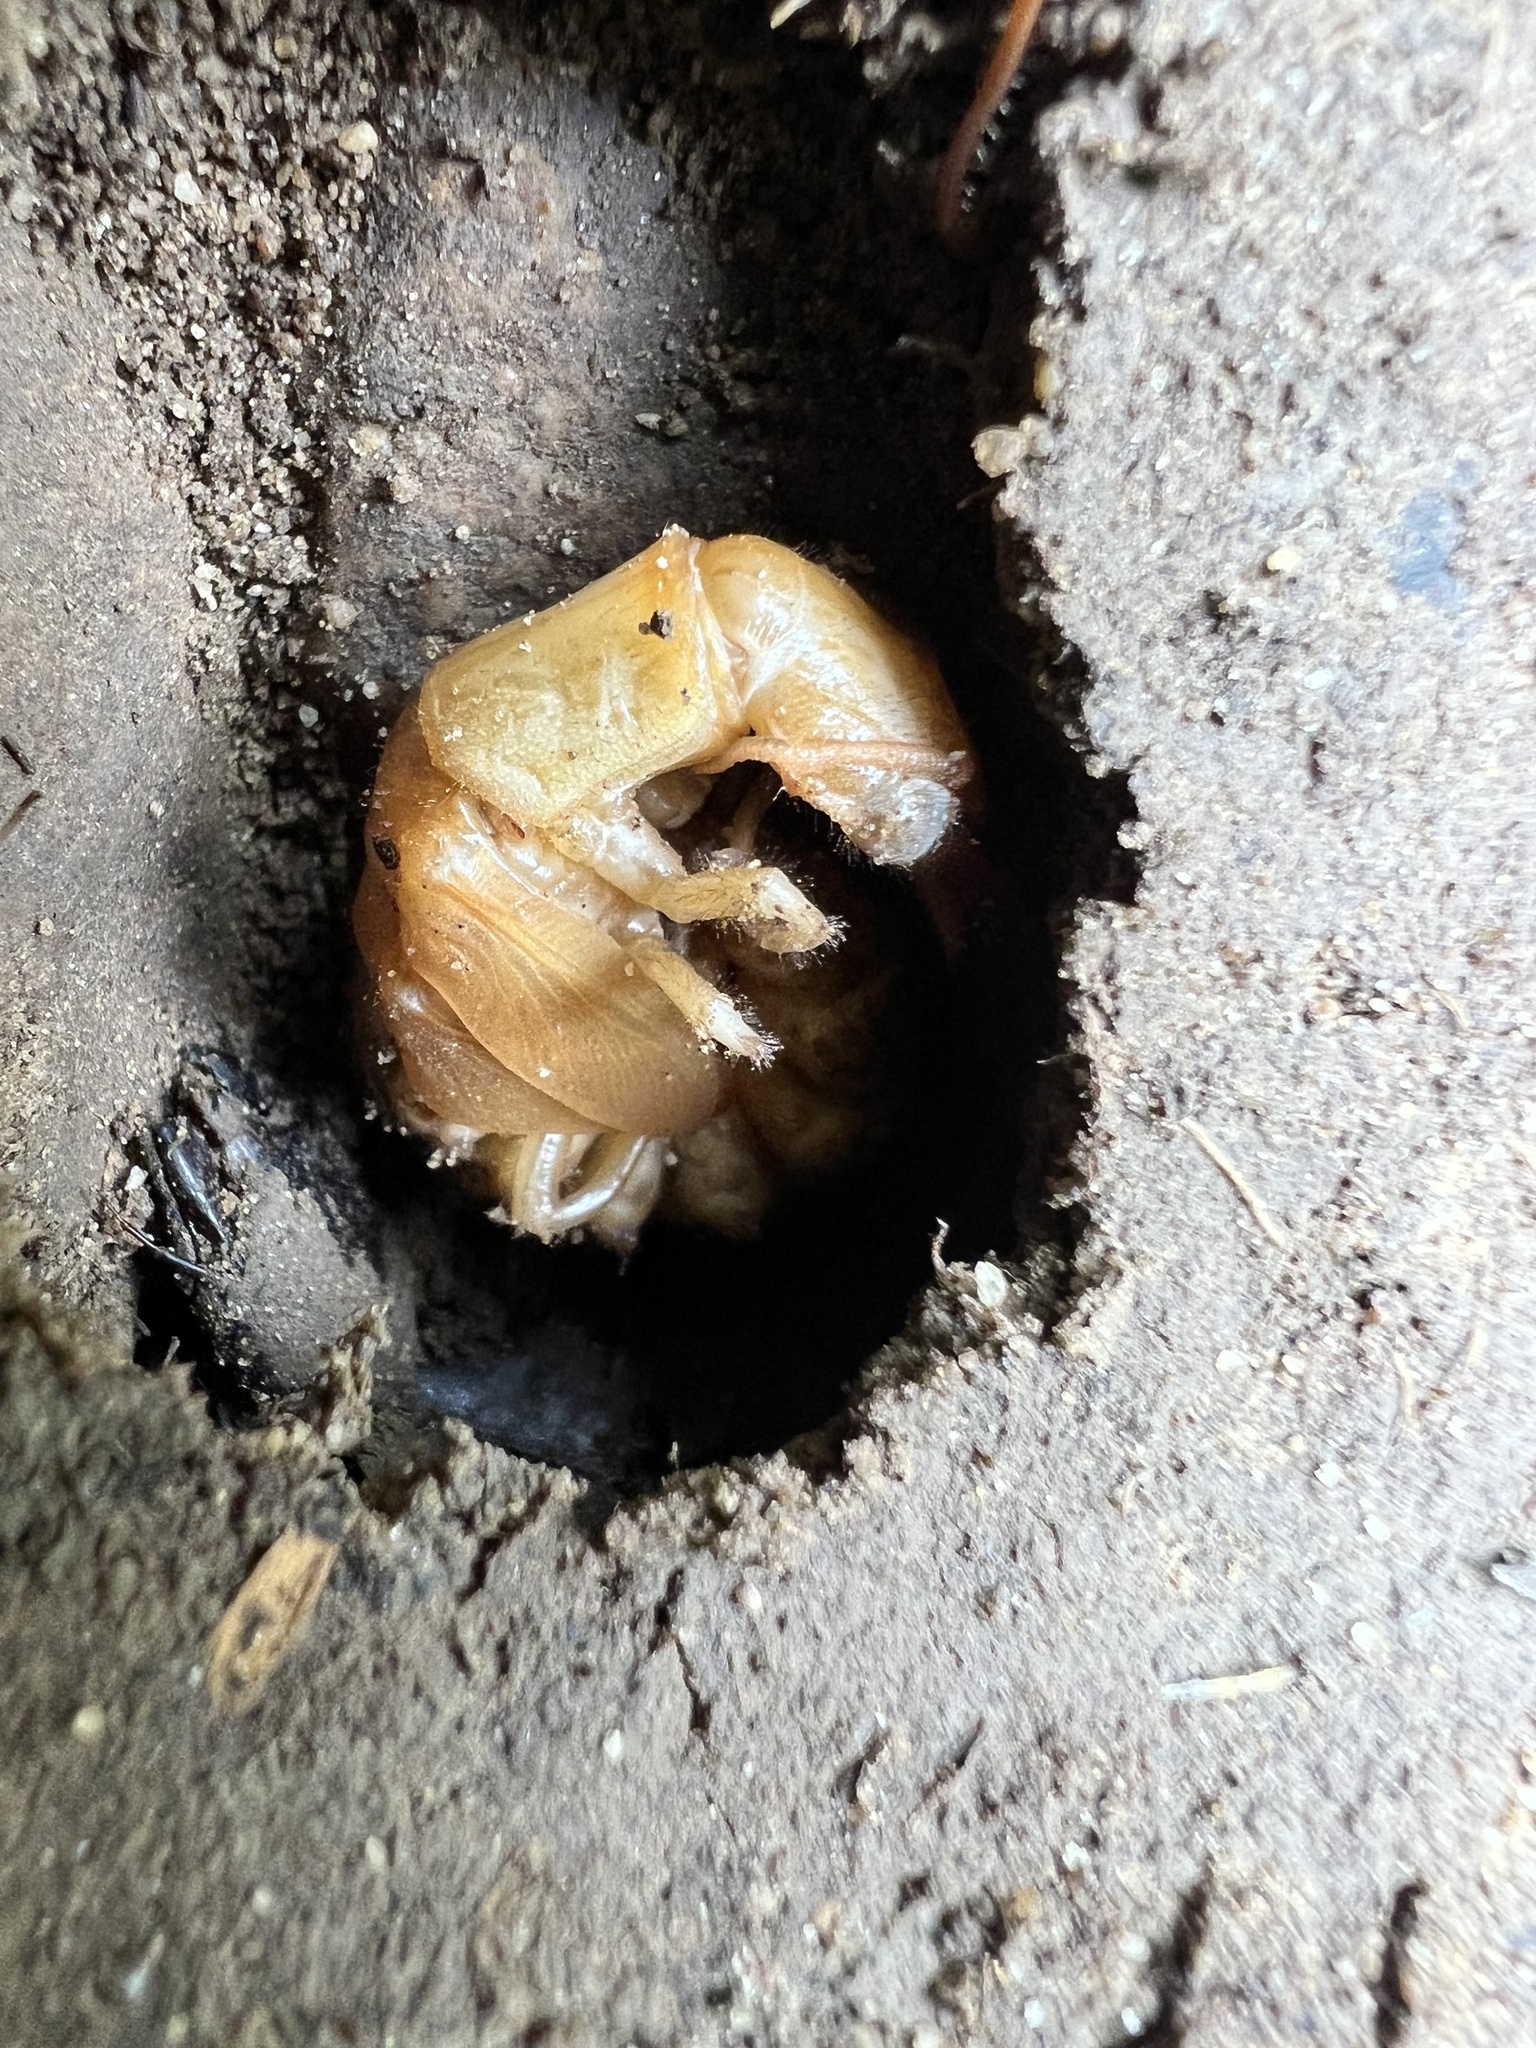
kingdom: Animalia
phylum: Arthropoda
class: Insecta
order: Megaloptera
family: Corydalidae
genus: Corydalus
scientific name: Corydalus cornutus
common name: Dobsonfly
